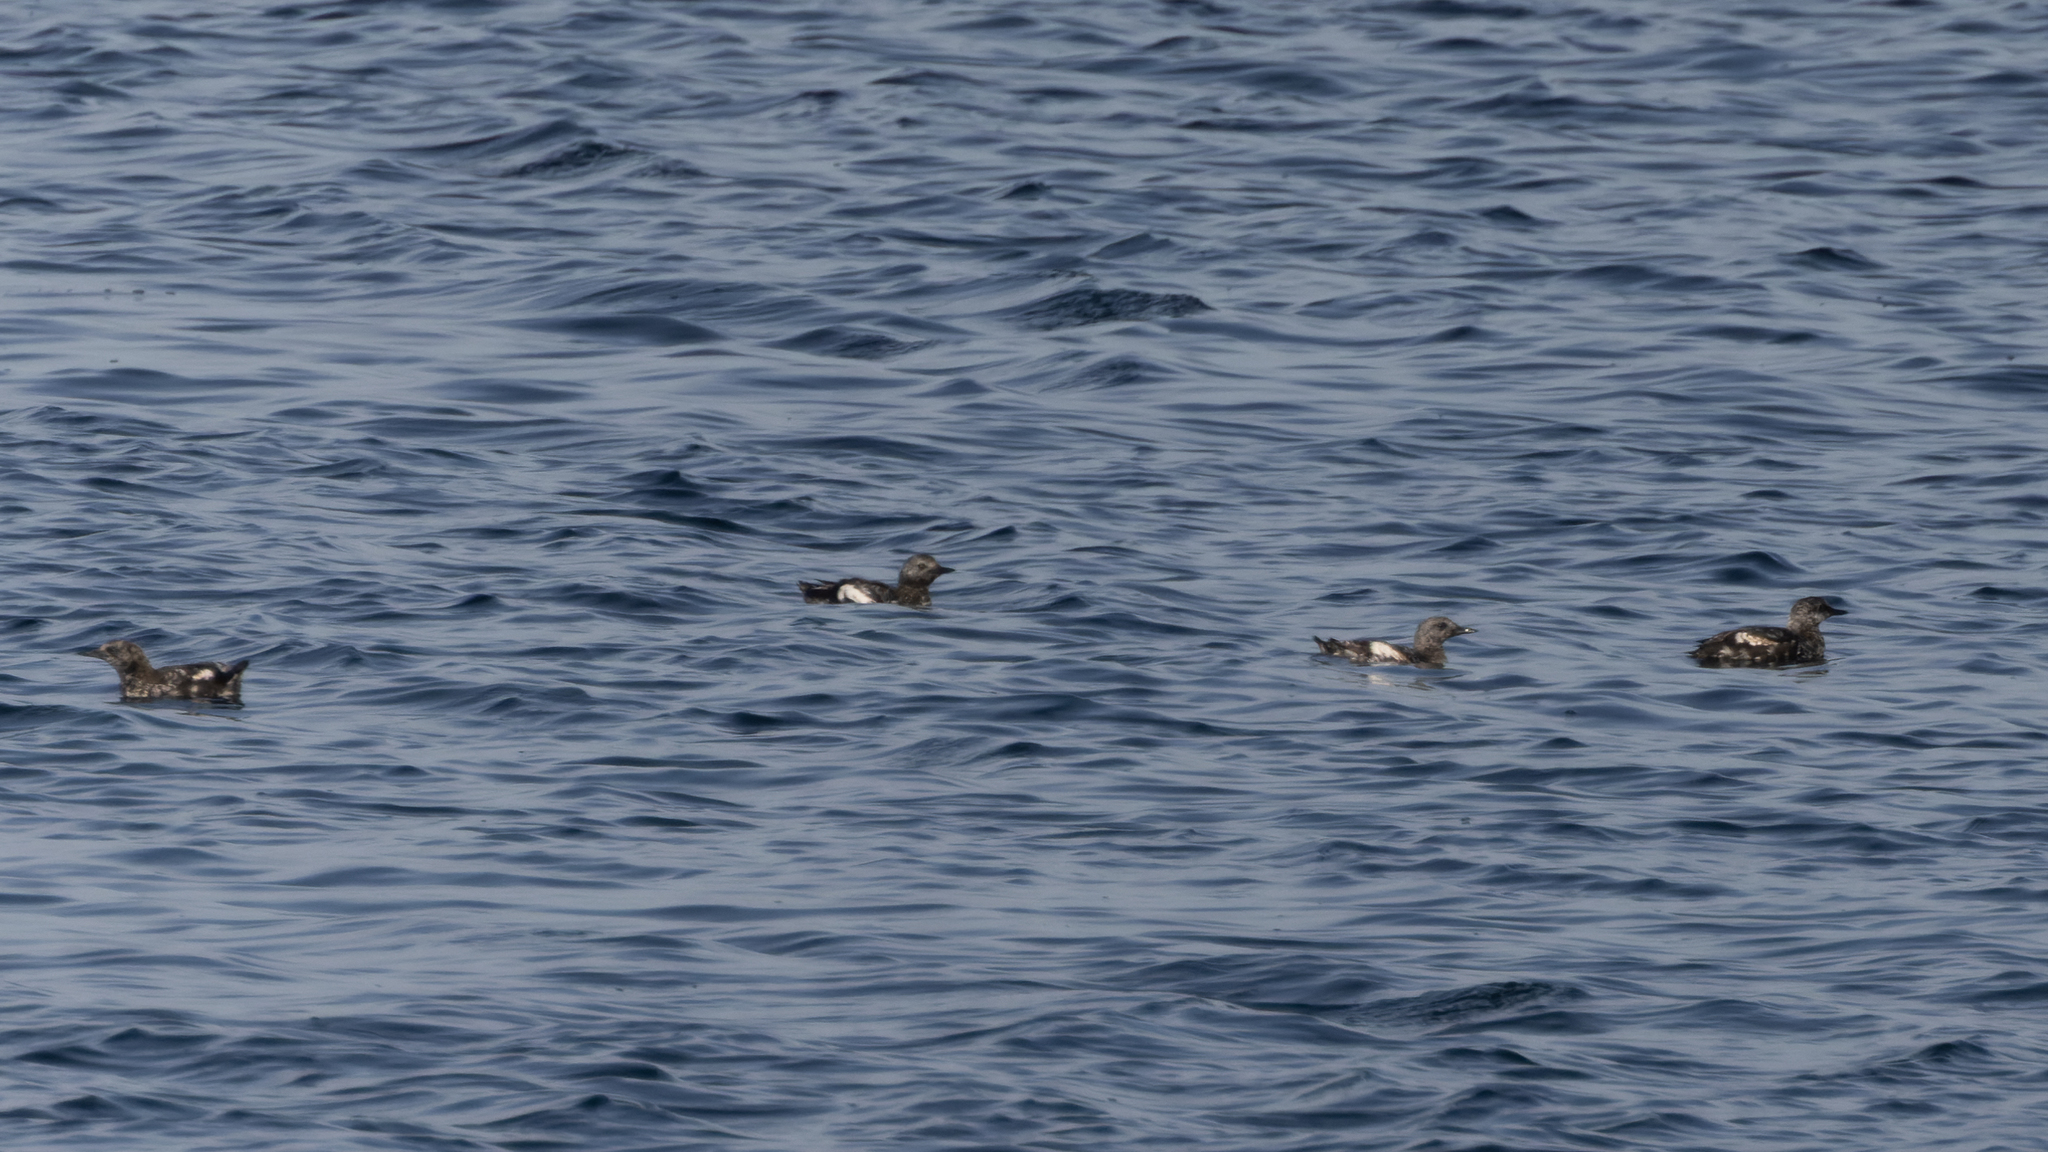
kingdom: Animalia
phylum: Chordata
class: Aves
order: Charadriiformes
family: Alcidae
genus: Cepphus
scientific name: Cepphus grylle
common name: Black guillemot
